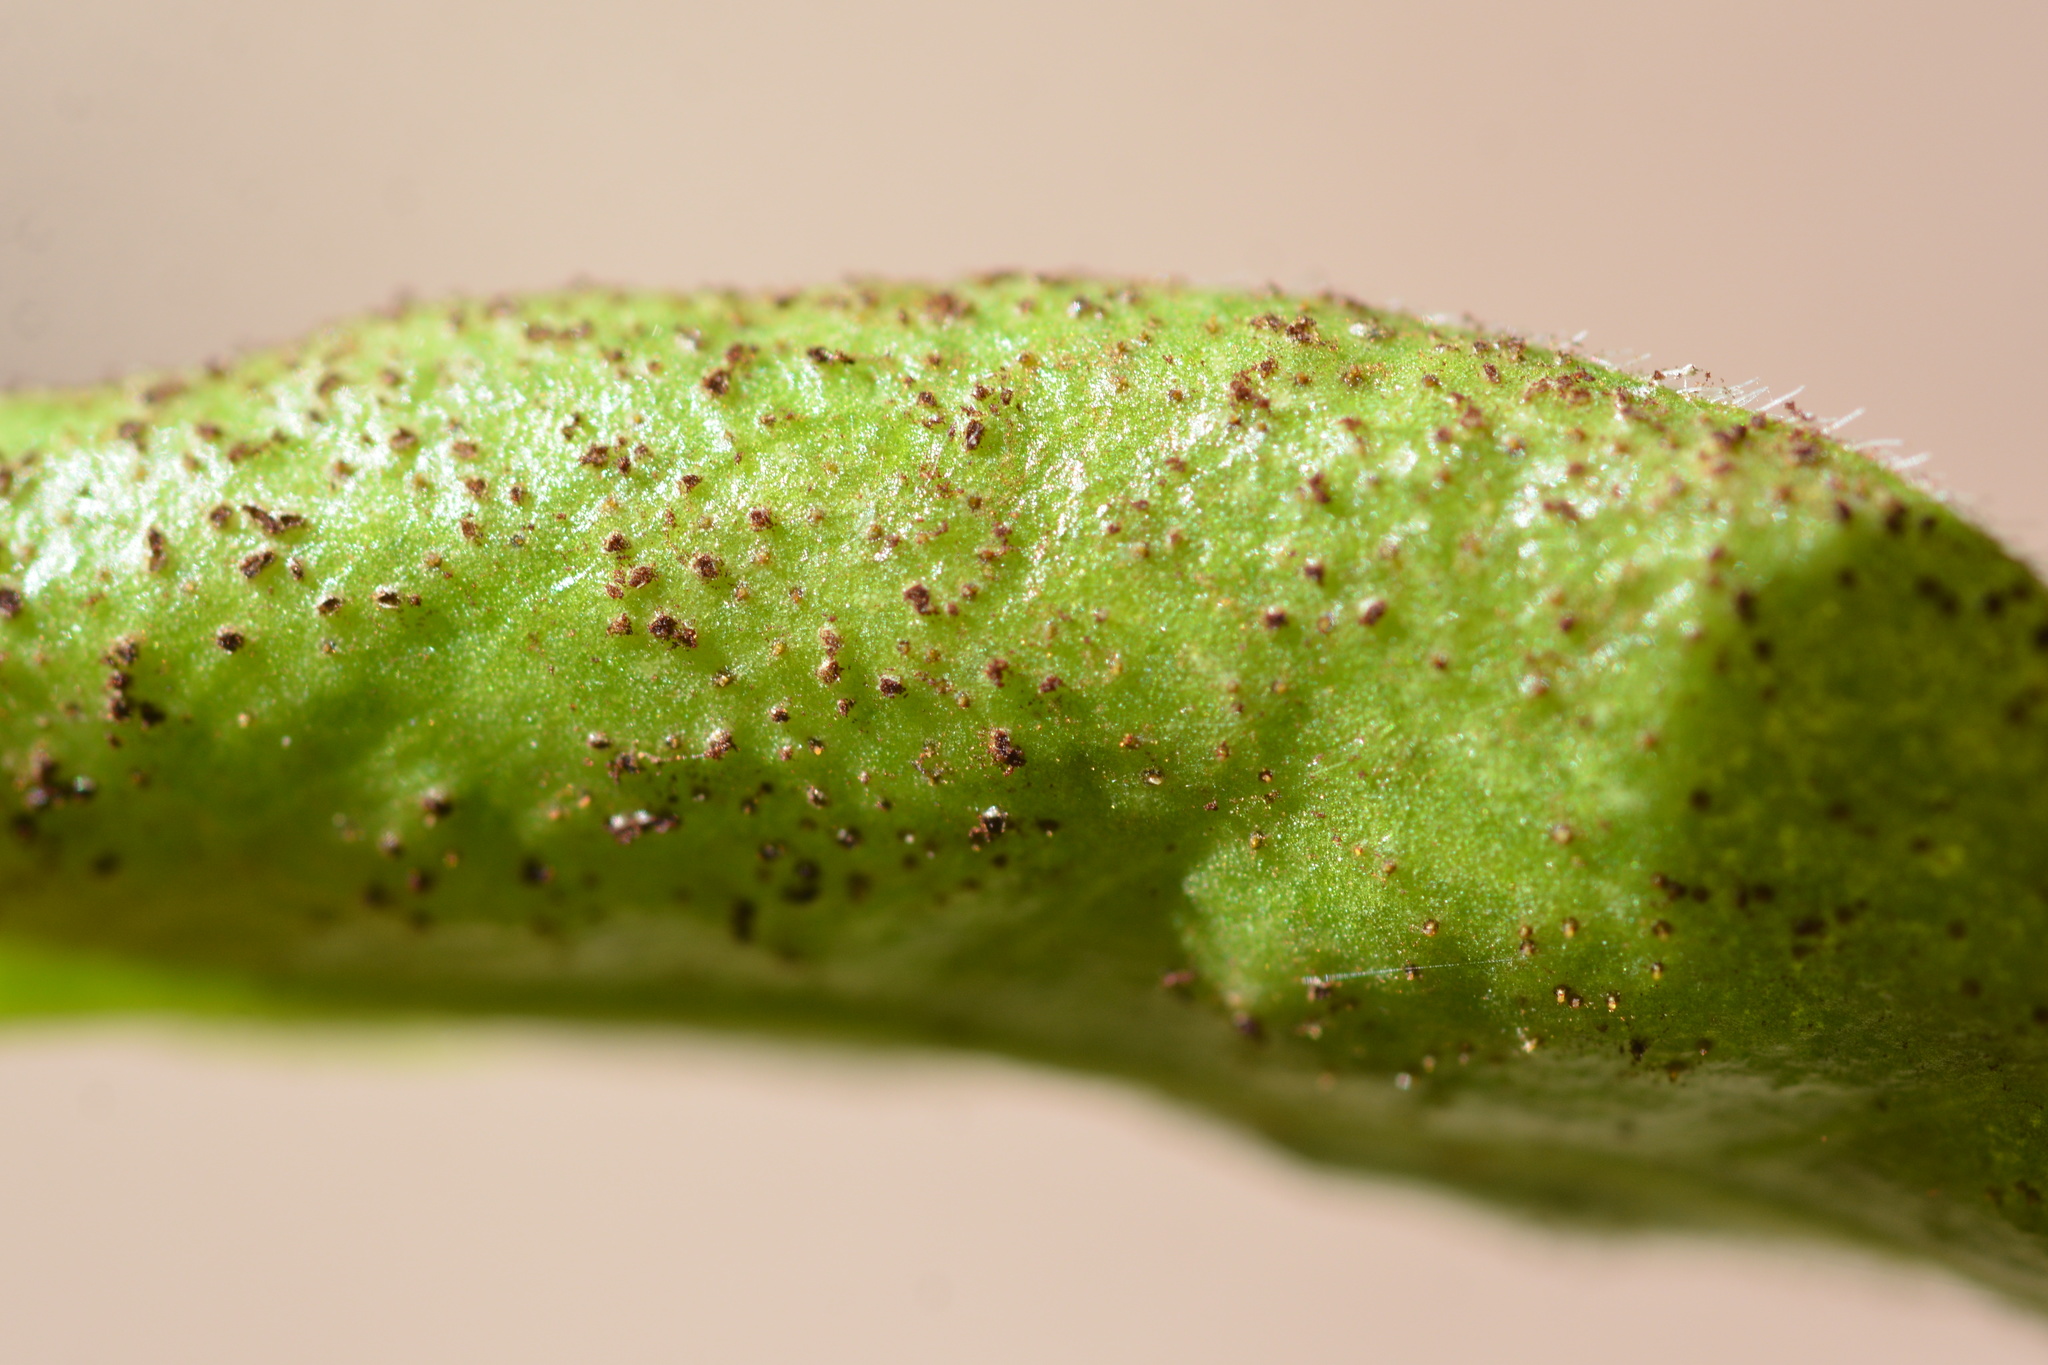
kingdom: Fungi
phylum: Basidiomycota
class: Pucciniomycetes
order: Pucciniales
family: Pucciniaceae
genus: Puccinia
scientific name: Puccinia vincae
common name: Periwinkle rust
